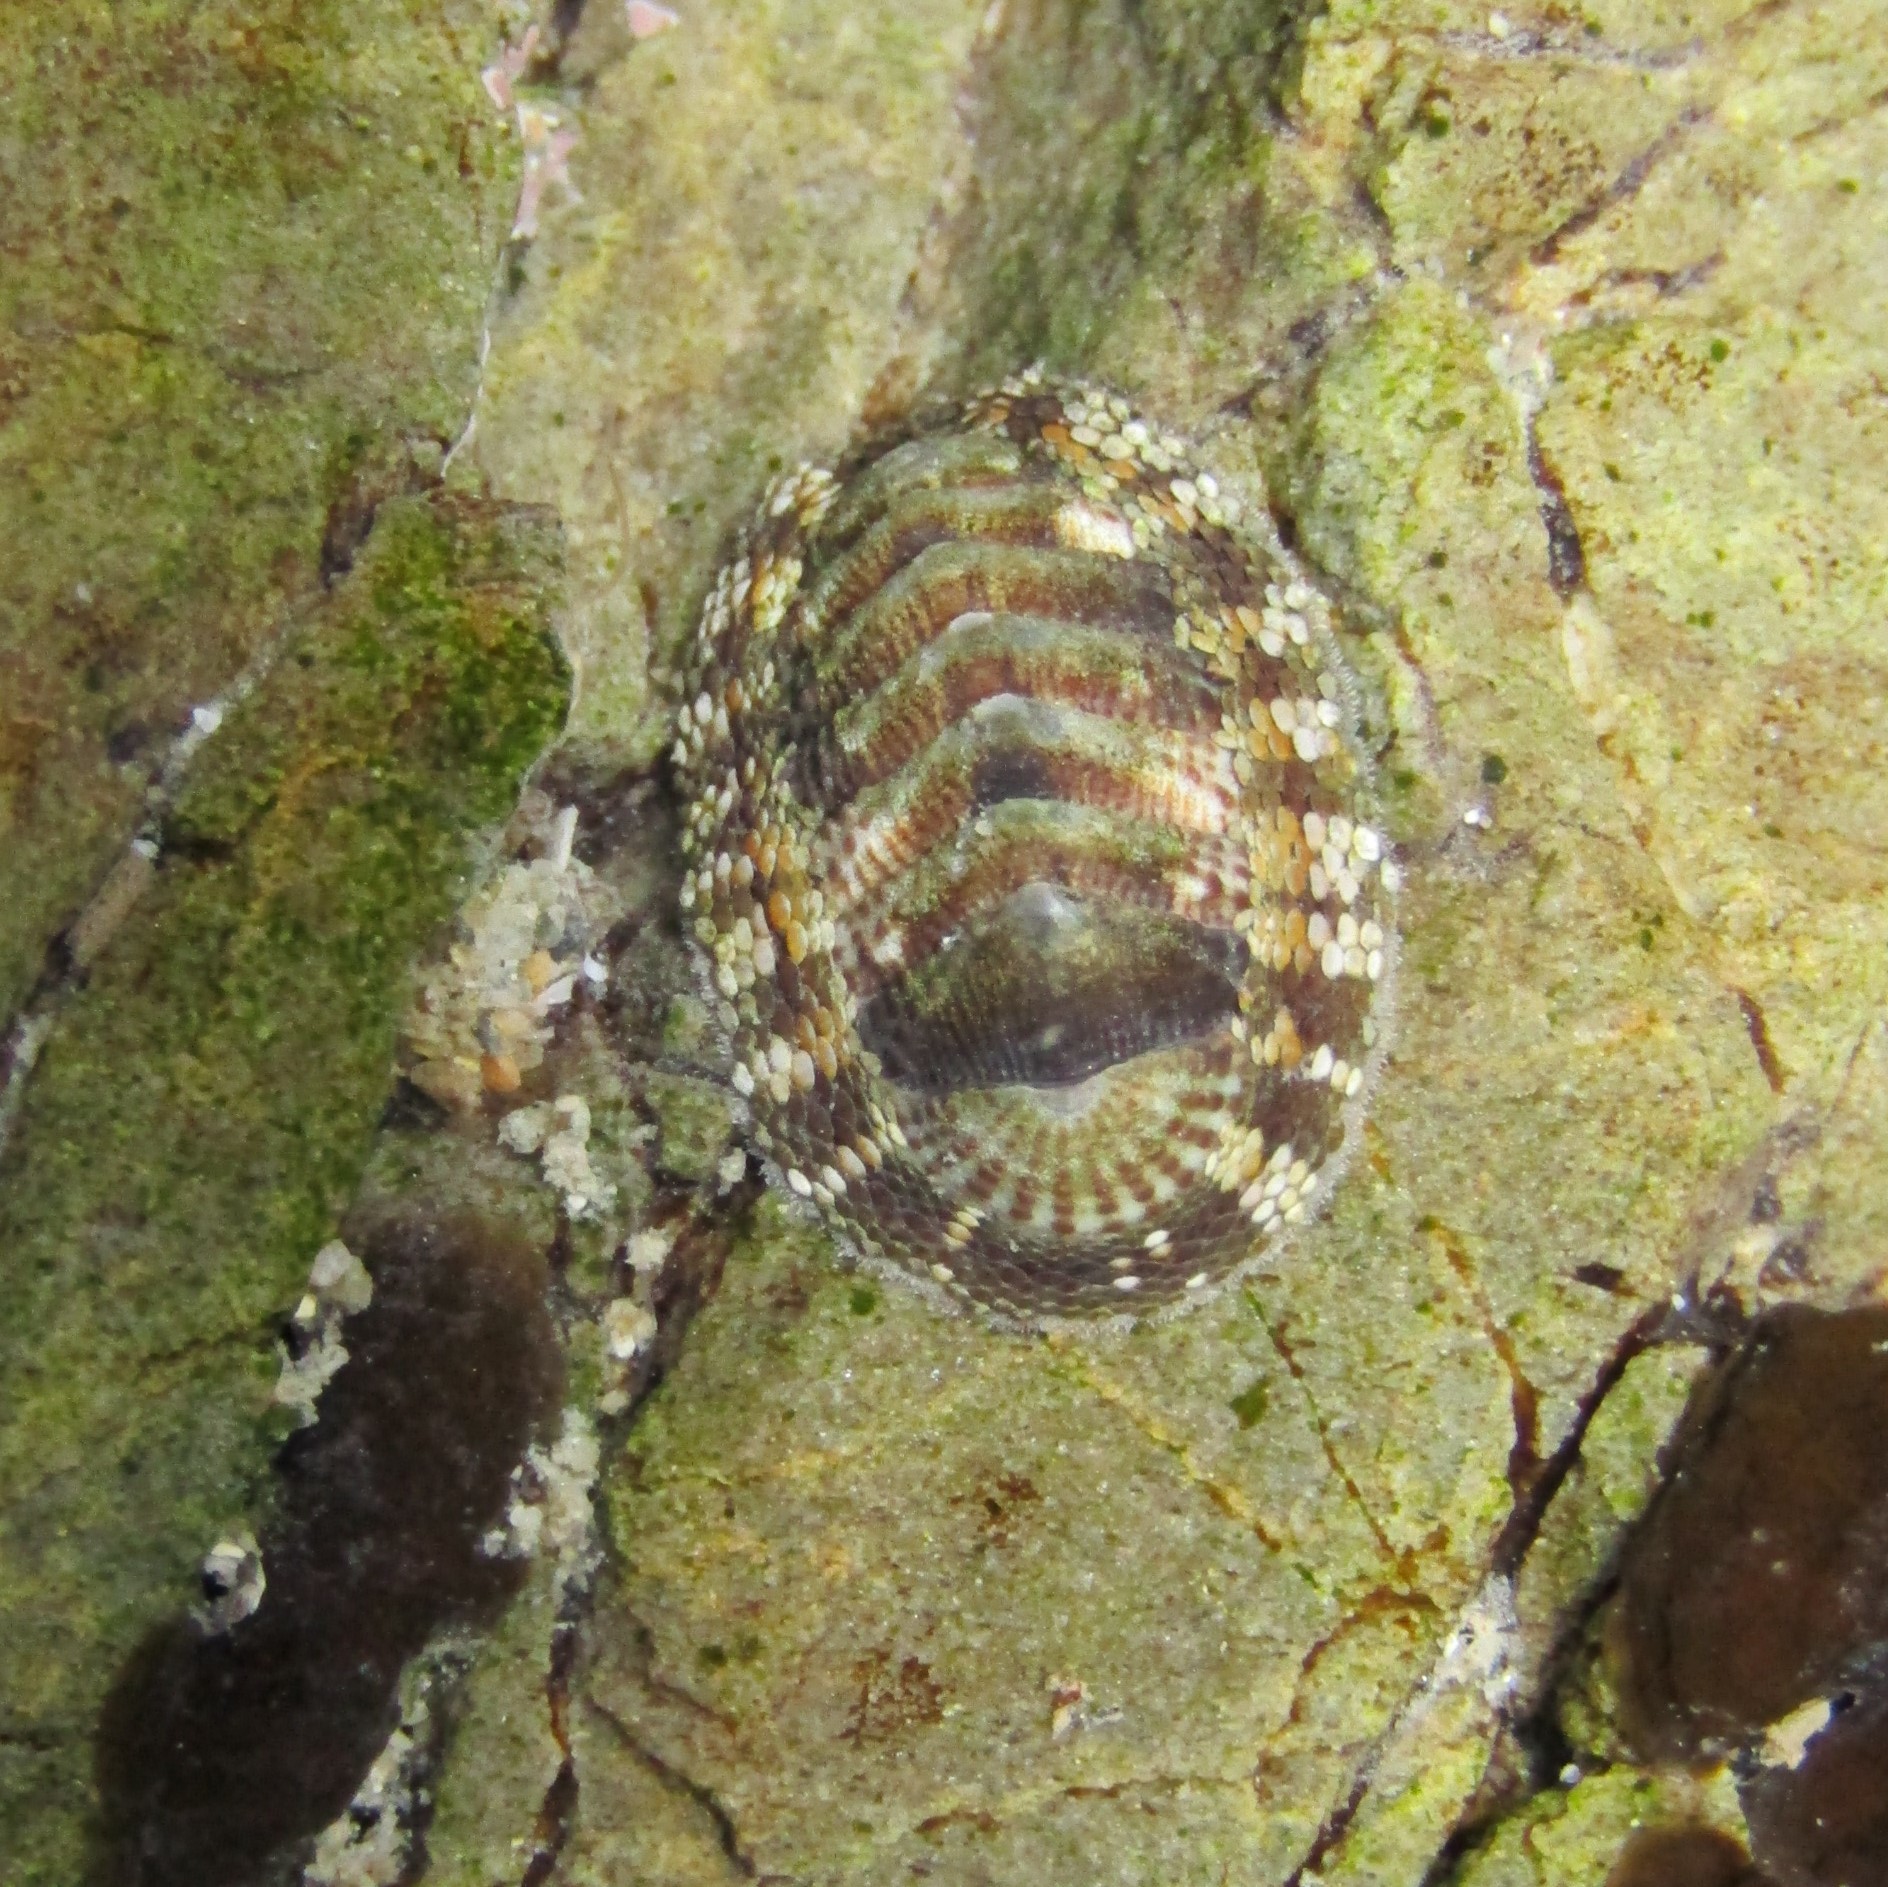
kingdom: Animalia
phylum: Mollusca
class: Polyplacophora
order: Chitonida
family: Chitonidae
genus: Sypharochiton
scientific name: Sypharochiton pelliserpentis
